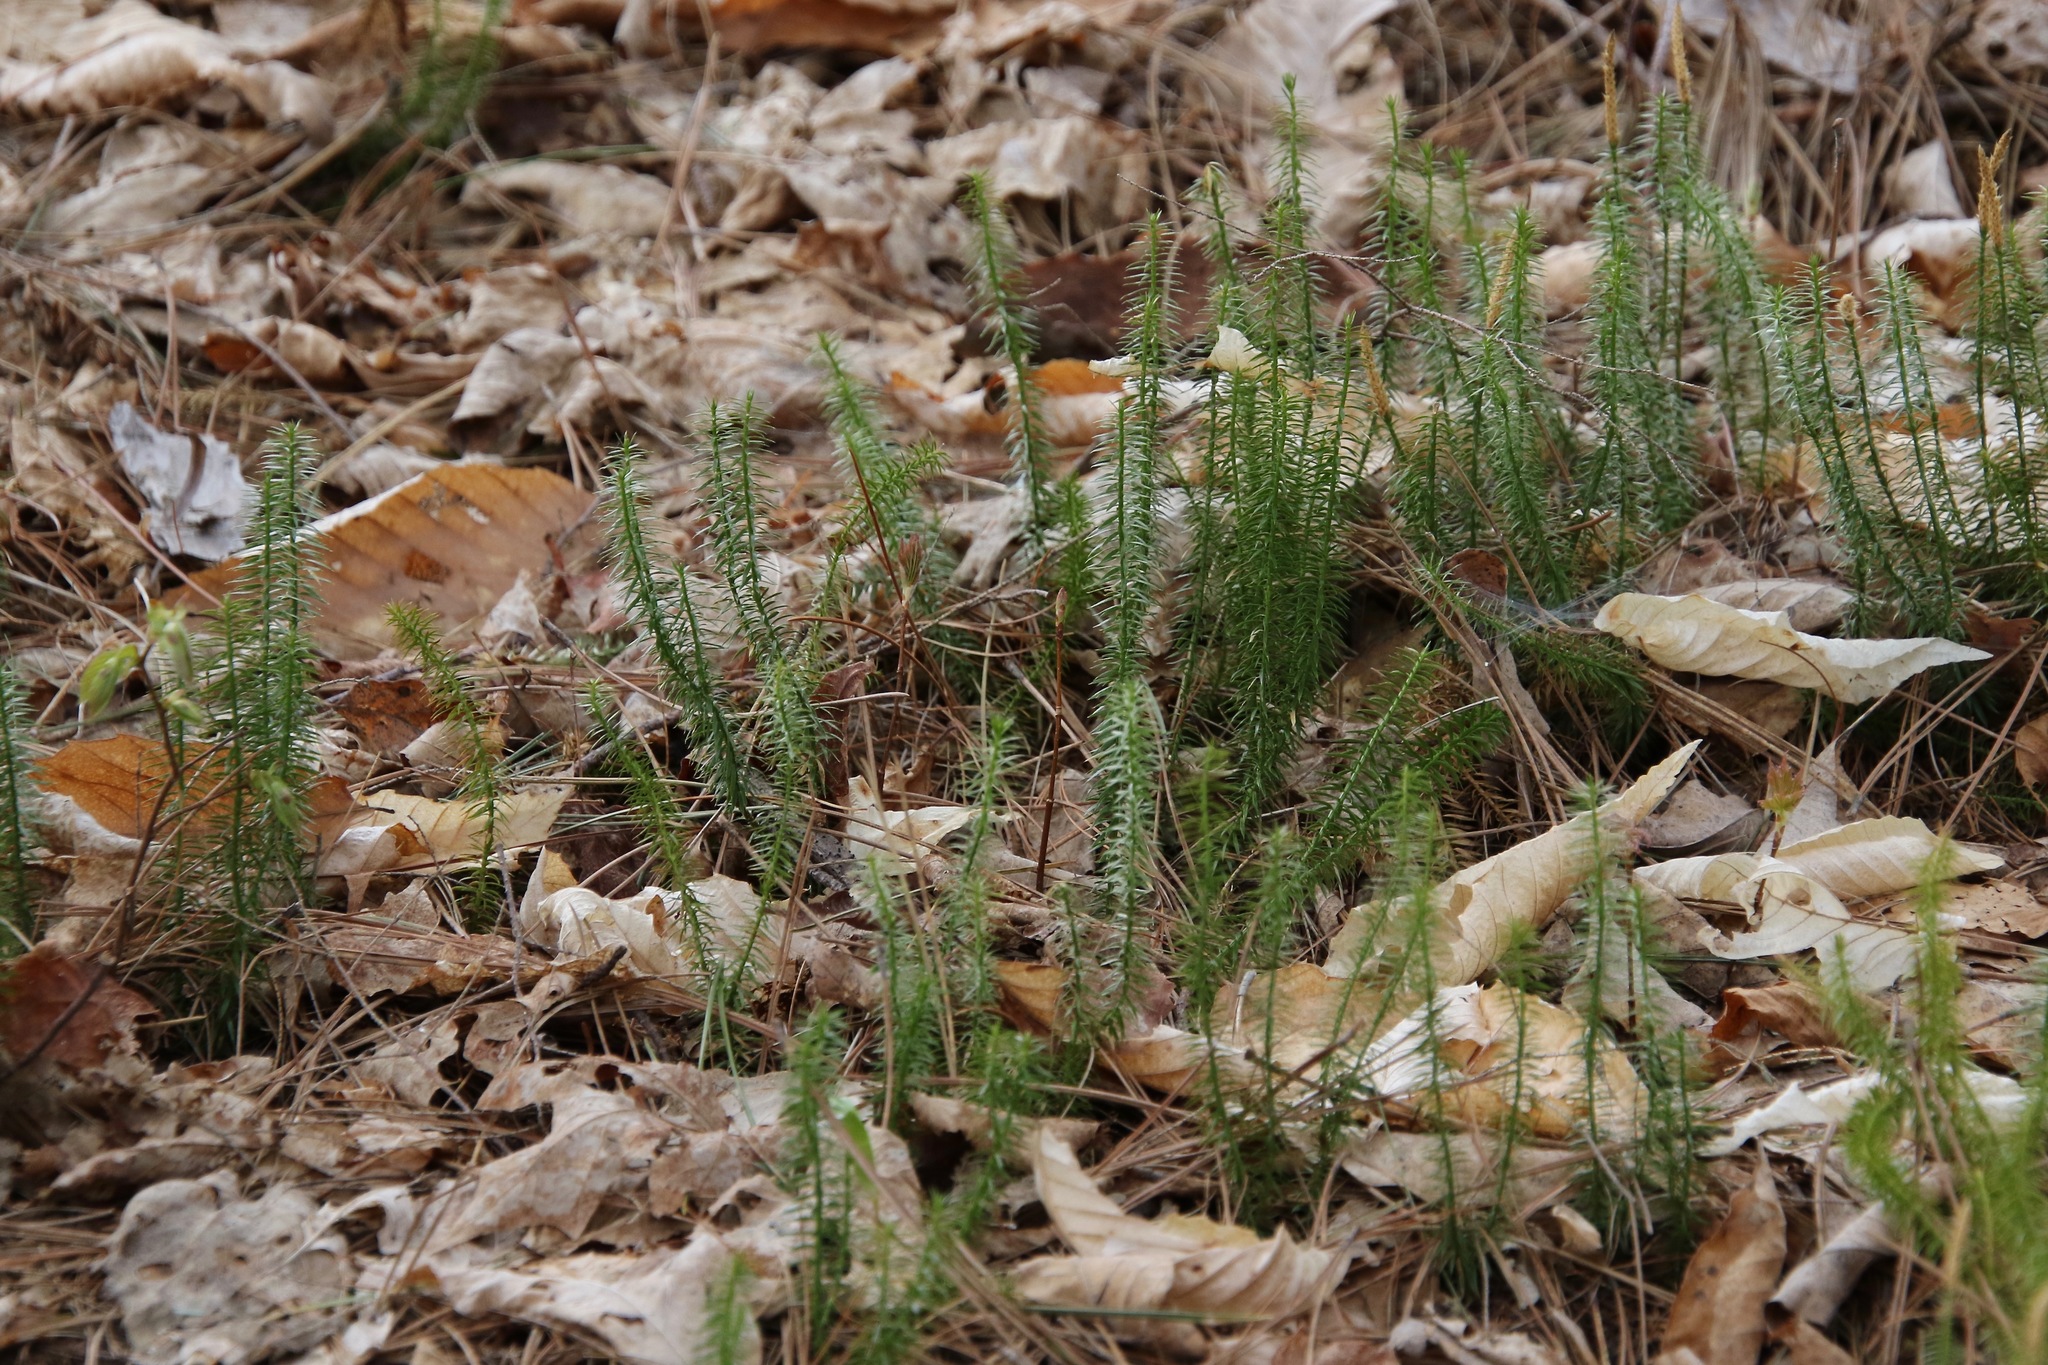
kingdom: Plantae
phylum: Tracheophyta
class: Lycopodiopsida
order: Lycopodiales
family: Lycopodiaceae
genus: Spinulum
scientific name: Spinulum annotinum
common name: Interrupted club-moss
